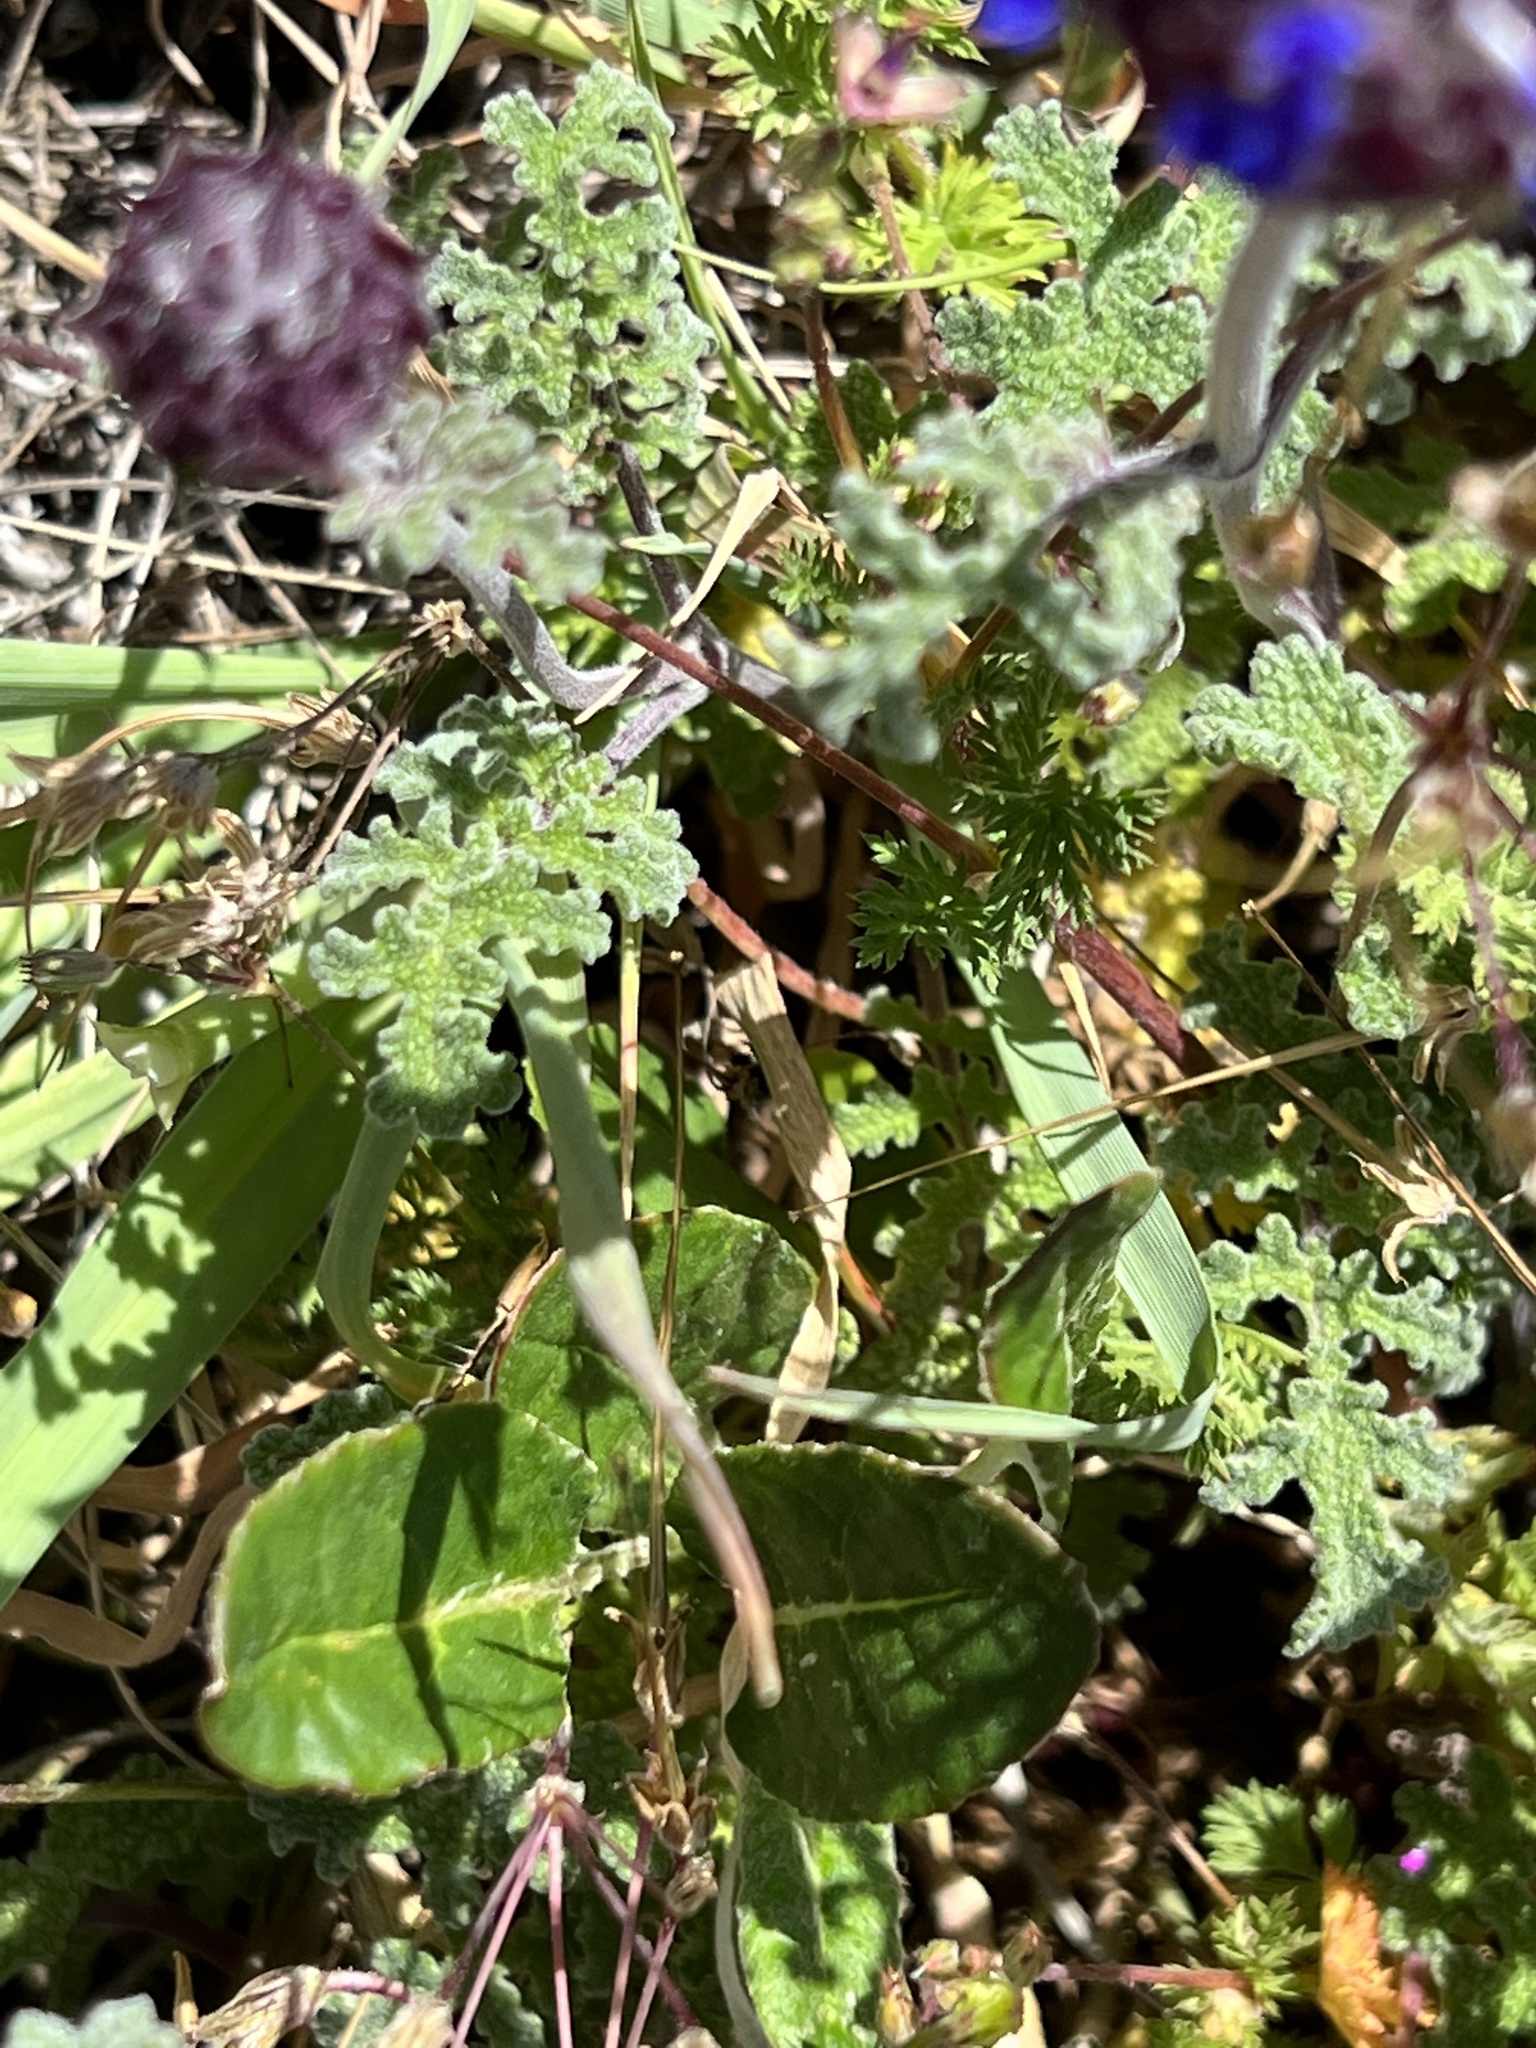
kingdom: Plantae
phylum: Tracheophyta
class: Magnoliopsida
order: Lamiales
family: Lamiaceae
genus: Salvia
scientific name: Salvia columbariae
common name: Chia
